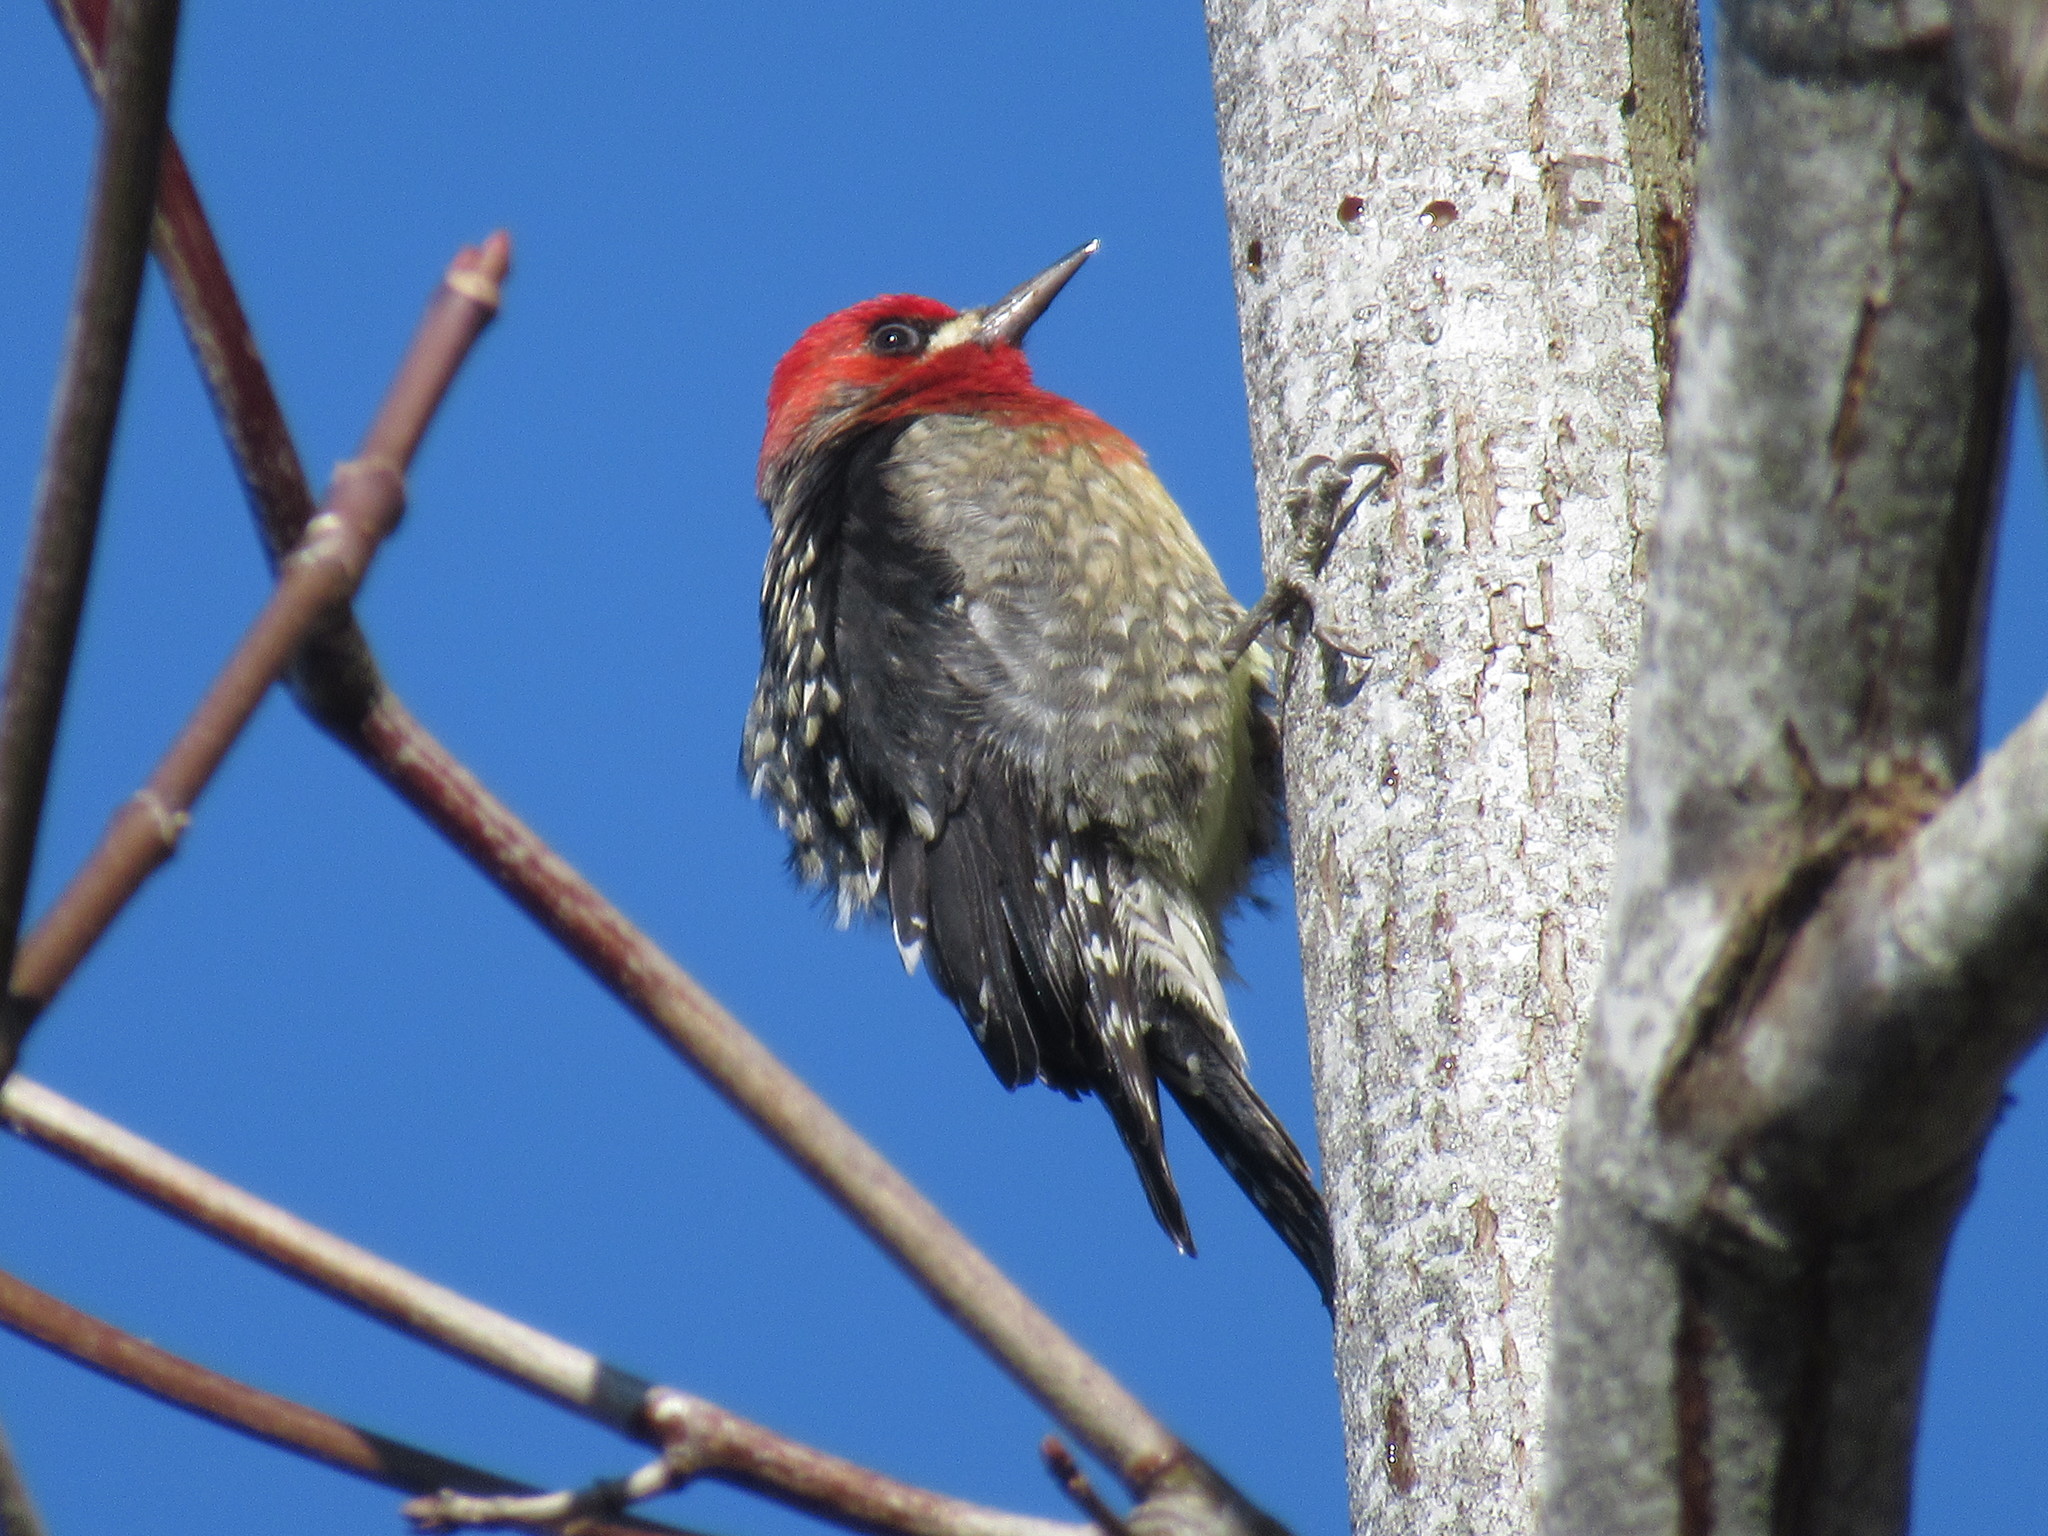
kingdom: Animalia
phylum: Chordata
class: Aves
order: Piciformes
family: Picidae
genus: Sphyrapicus
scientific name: Sphyrapicus ruber
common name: Red-breasted sapsucker
